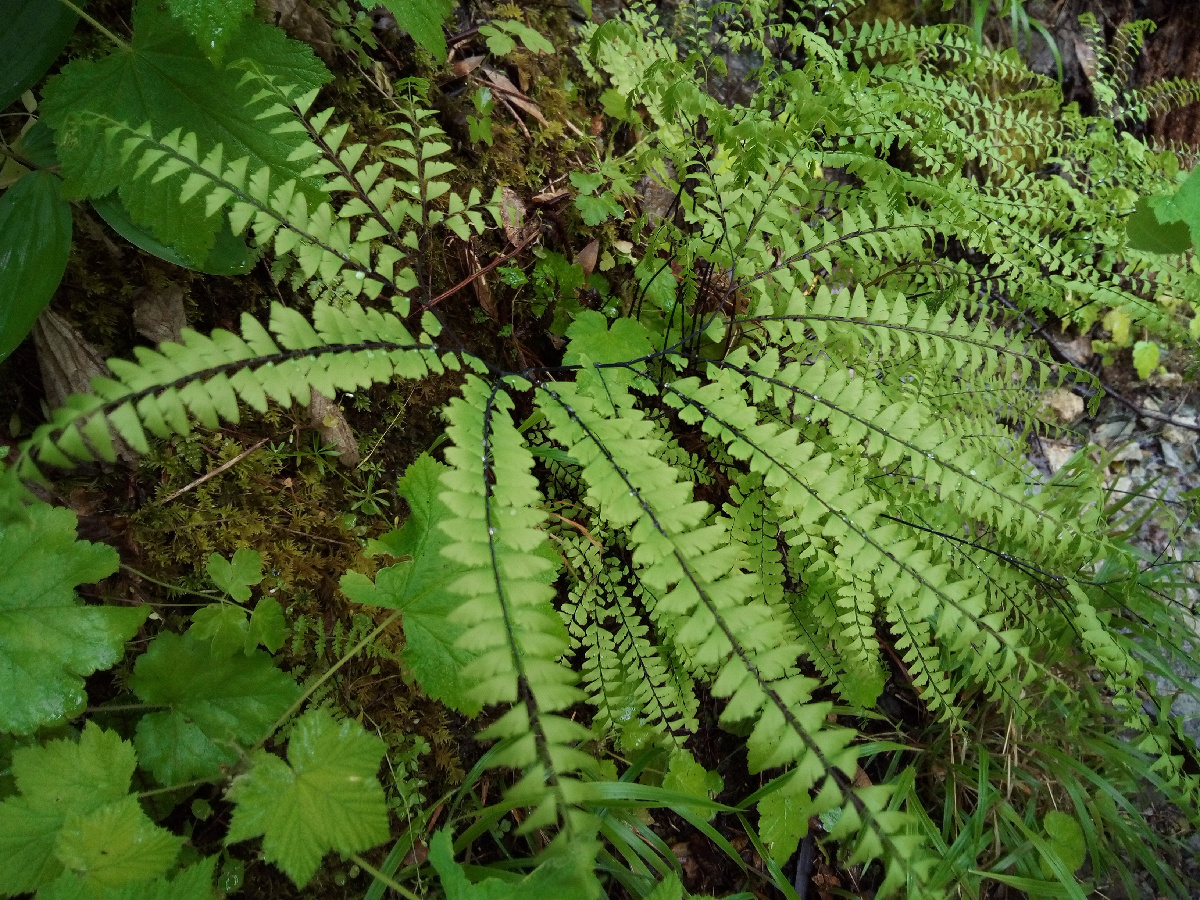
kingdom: Plantae
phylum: Tracheophyta
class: Polypodiopsida
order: Polypodiales
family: Pteridaceae
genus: Adiantum
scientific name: Adiantum aleuticum
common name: Aleutian maidenhair fern
